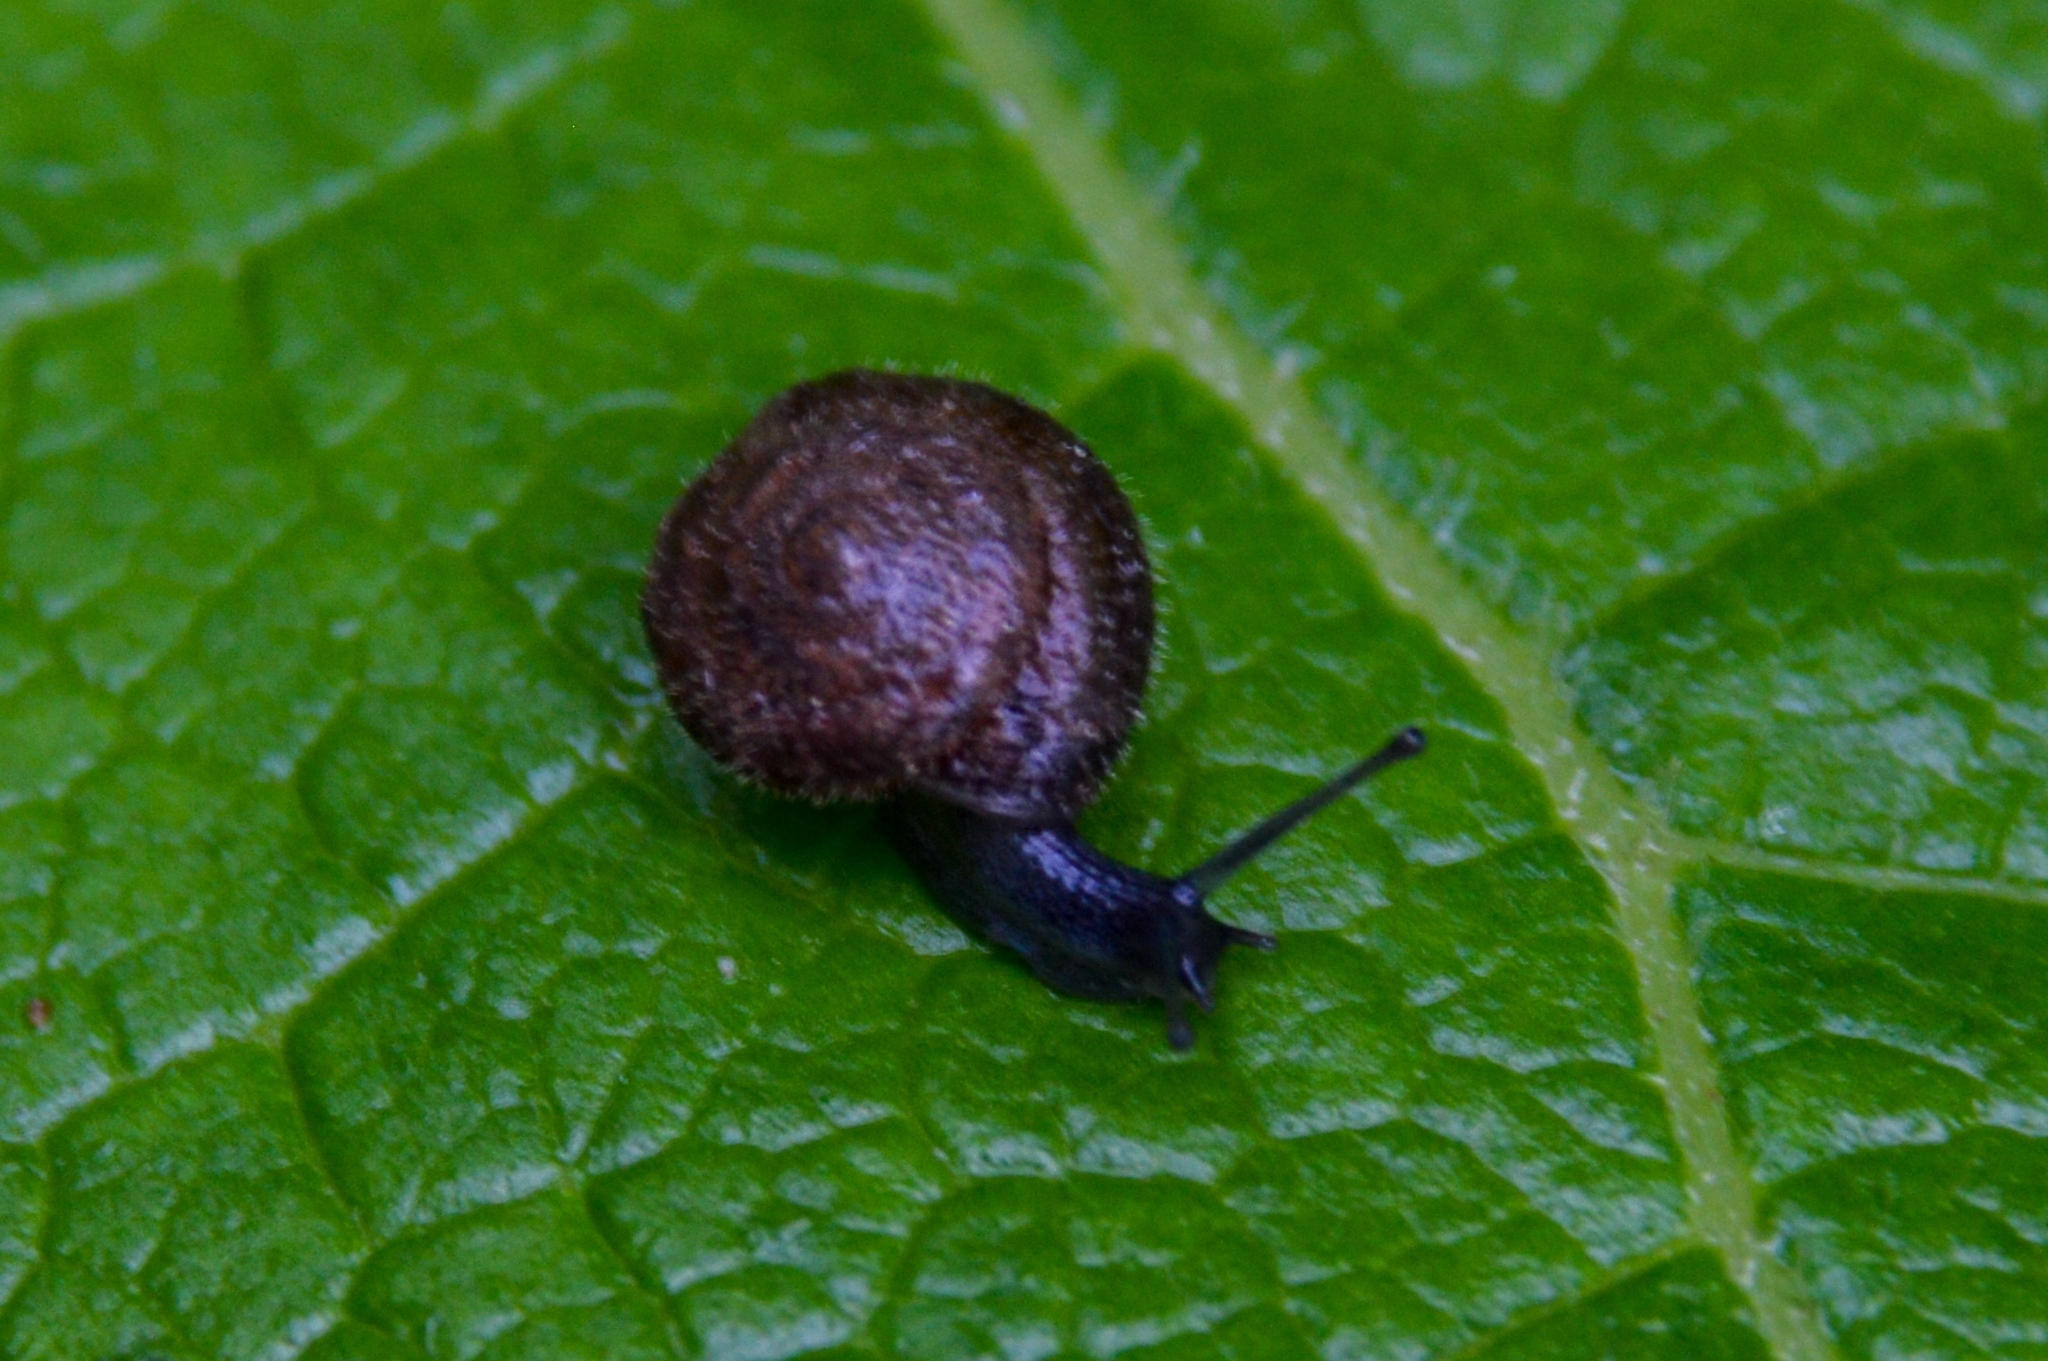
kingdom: Animalia
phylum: Mollusca
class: Gastropoda
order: Stylommatophora
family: Hygromiidae
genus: Trochulus
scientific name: Trochulus hispidus
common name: Hairy snail
